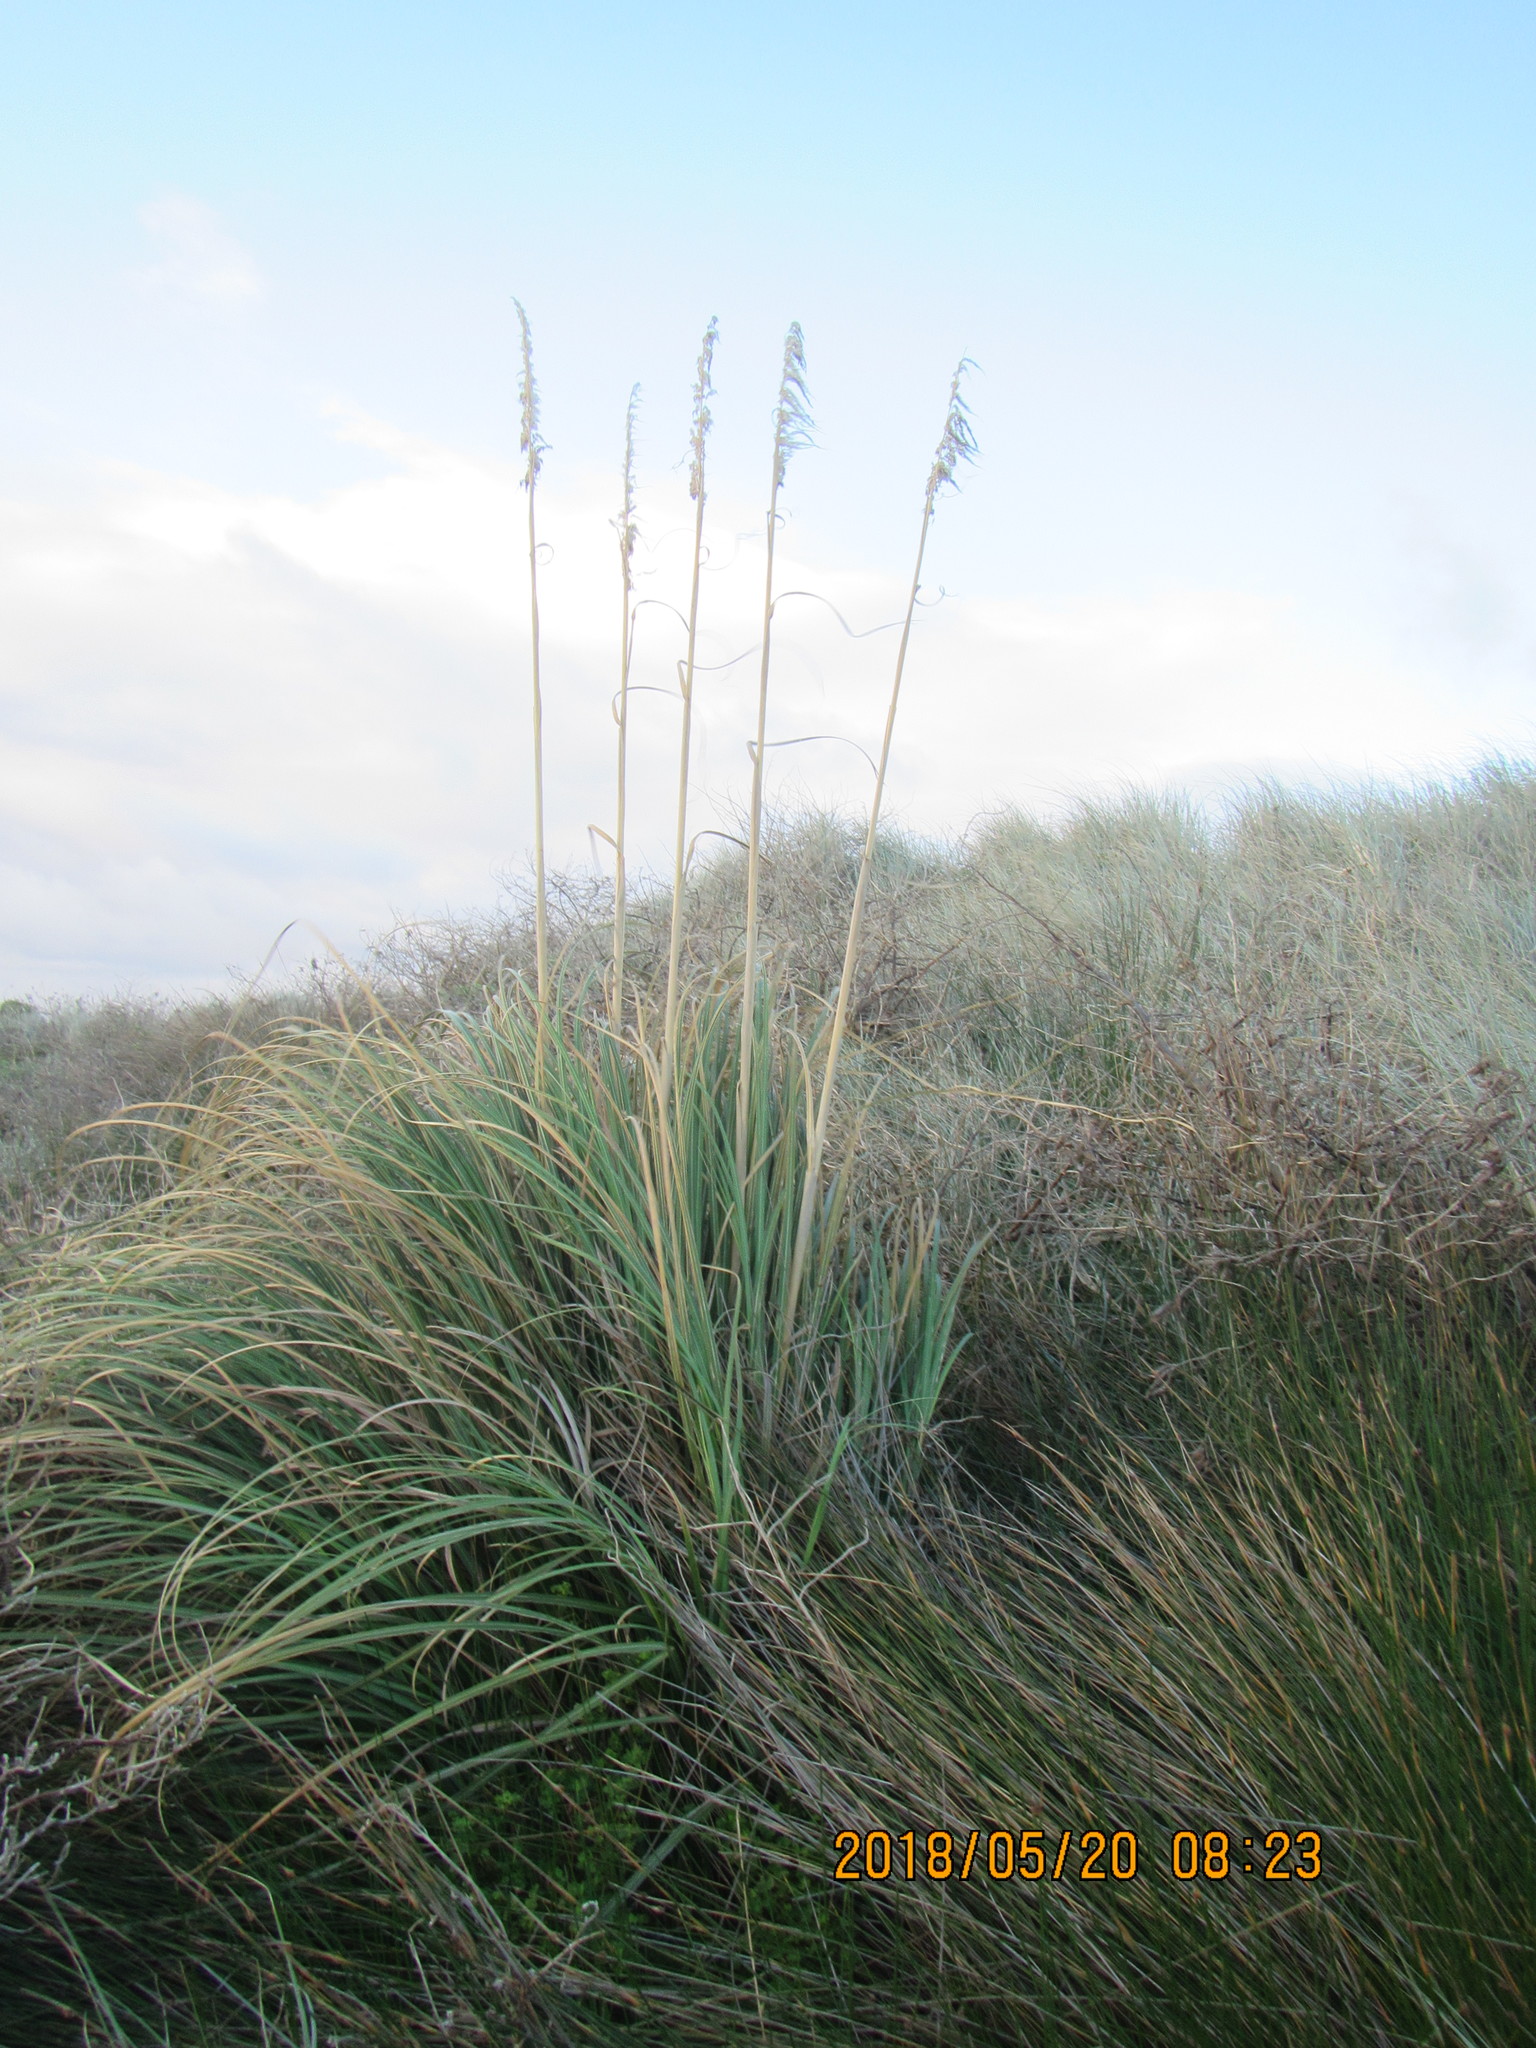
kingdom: Plantae
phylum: Tracheophyta
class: Liliopsida
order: Poales
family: Poaceae
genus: Cortaderia
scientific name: Cortaderia selloana
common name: Uruguayan pampas grass
